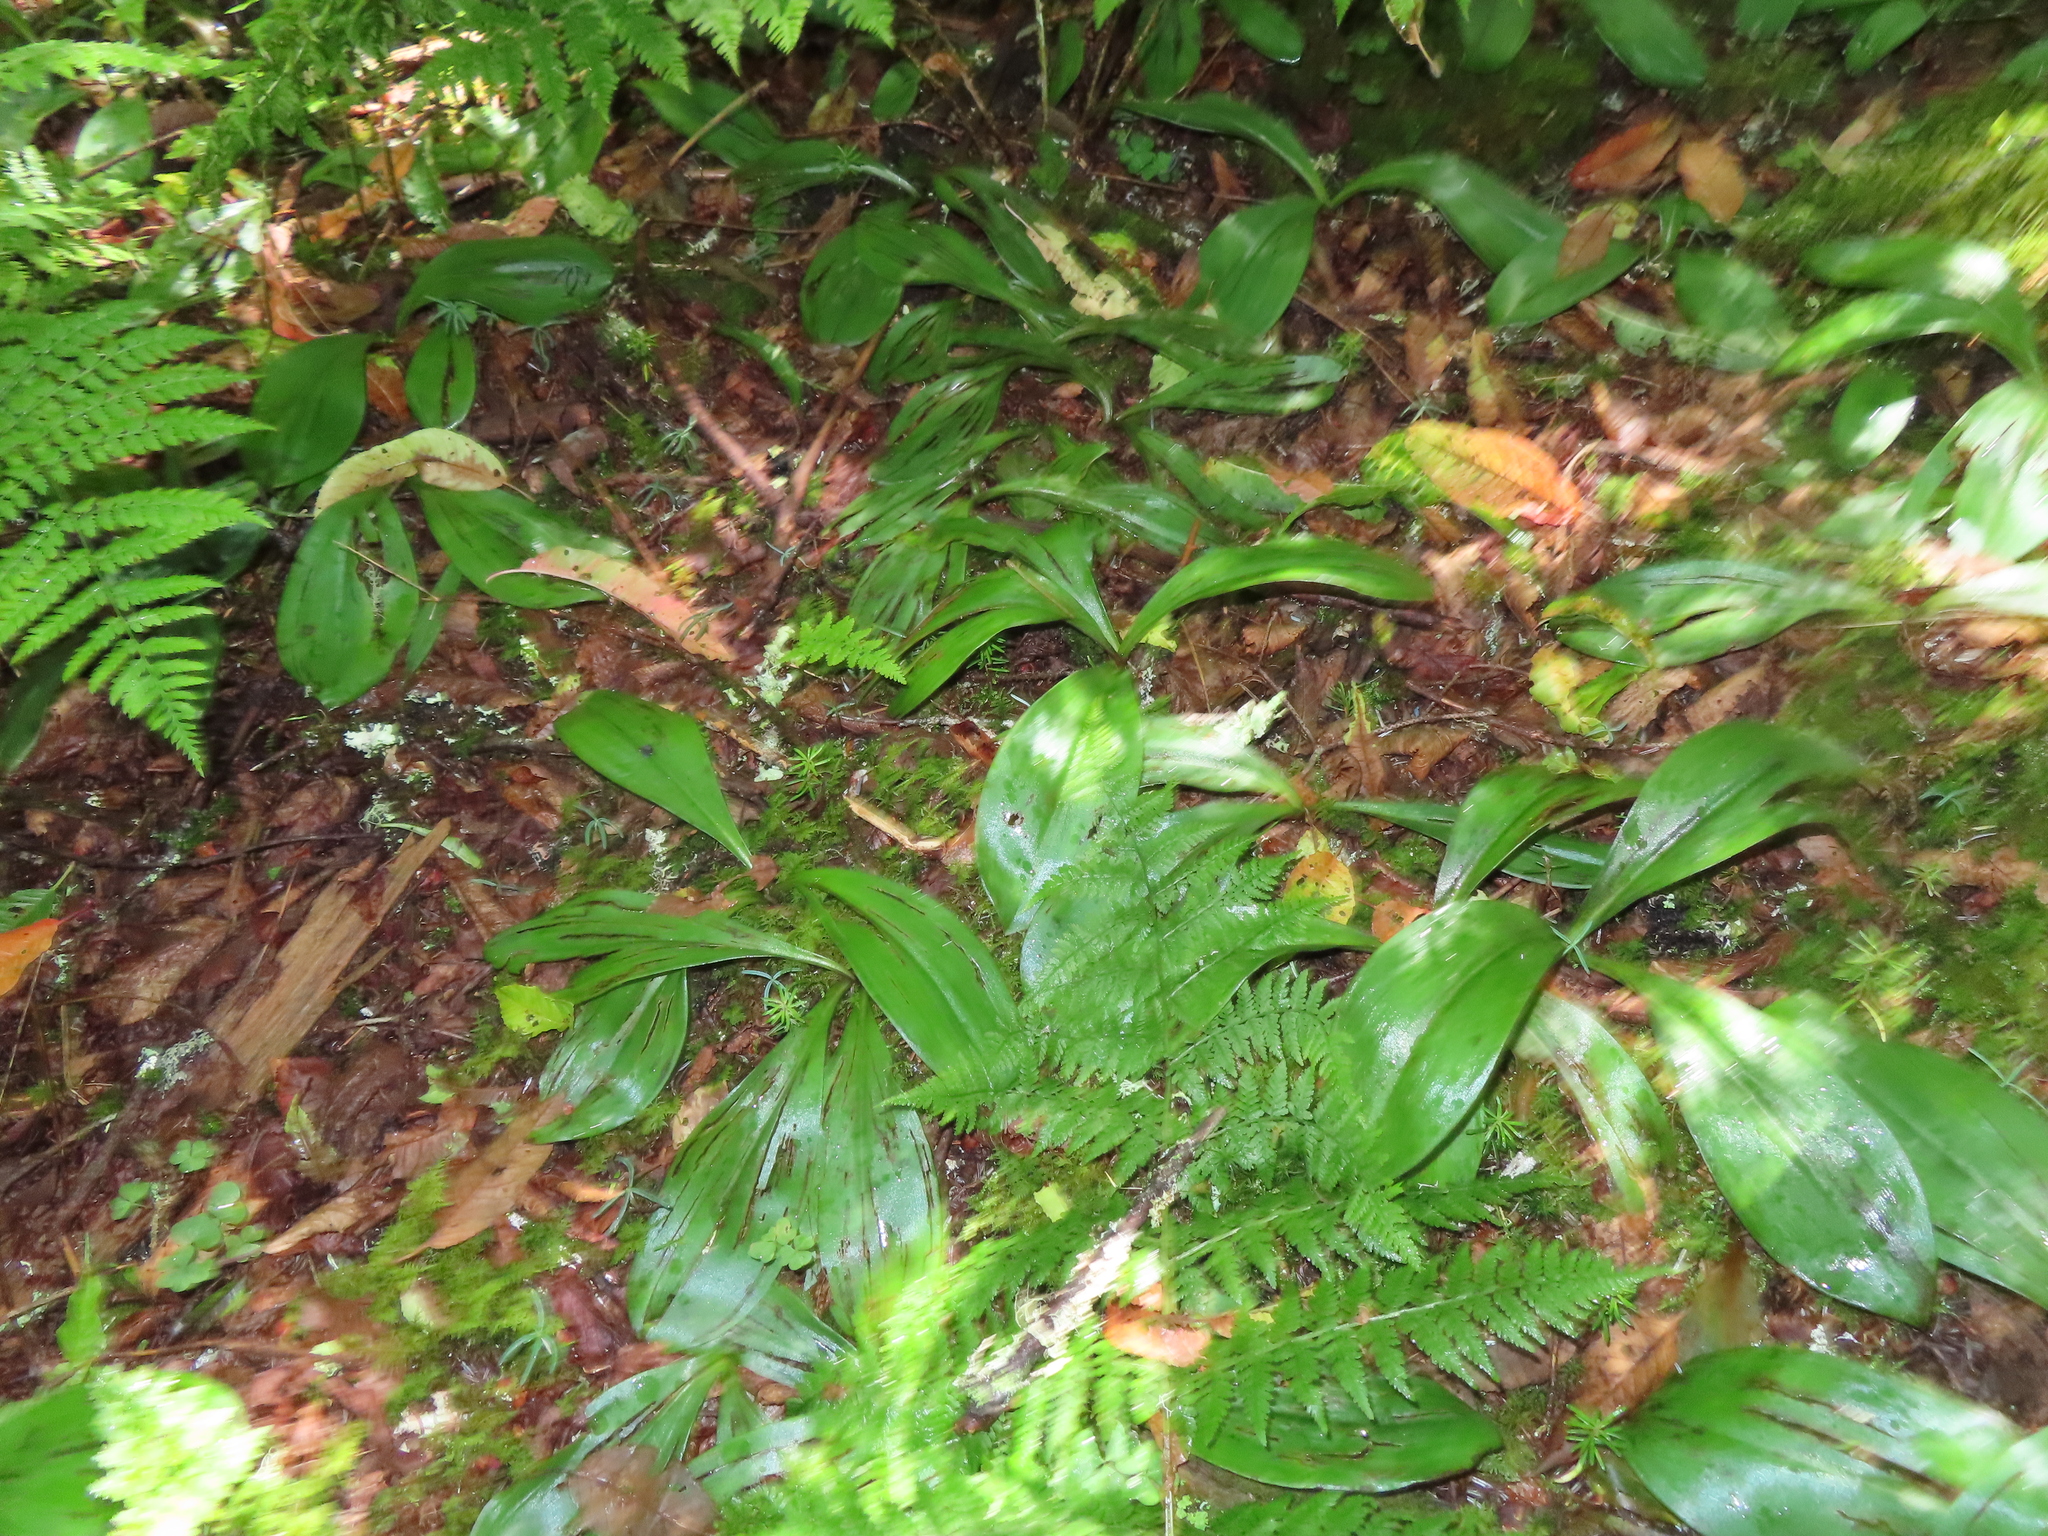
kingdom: Plantae
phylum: Tracheophyta
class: Liliopsida
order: Liliales
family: Liliaceae
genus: Clintonia
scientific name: Clintonia borealis
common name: Yellow clintonia
